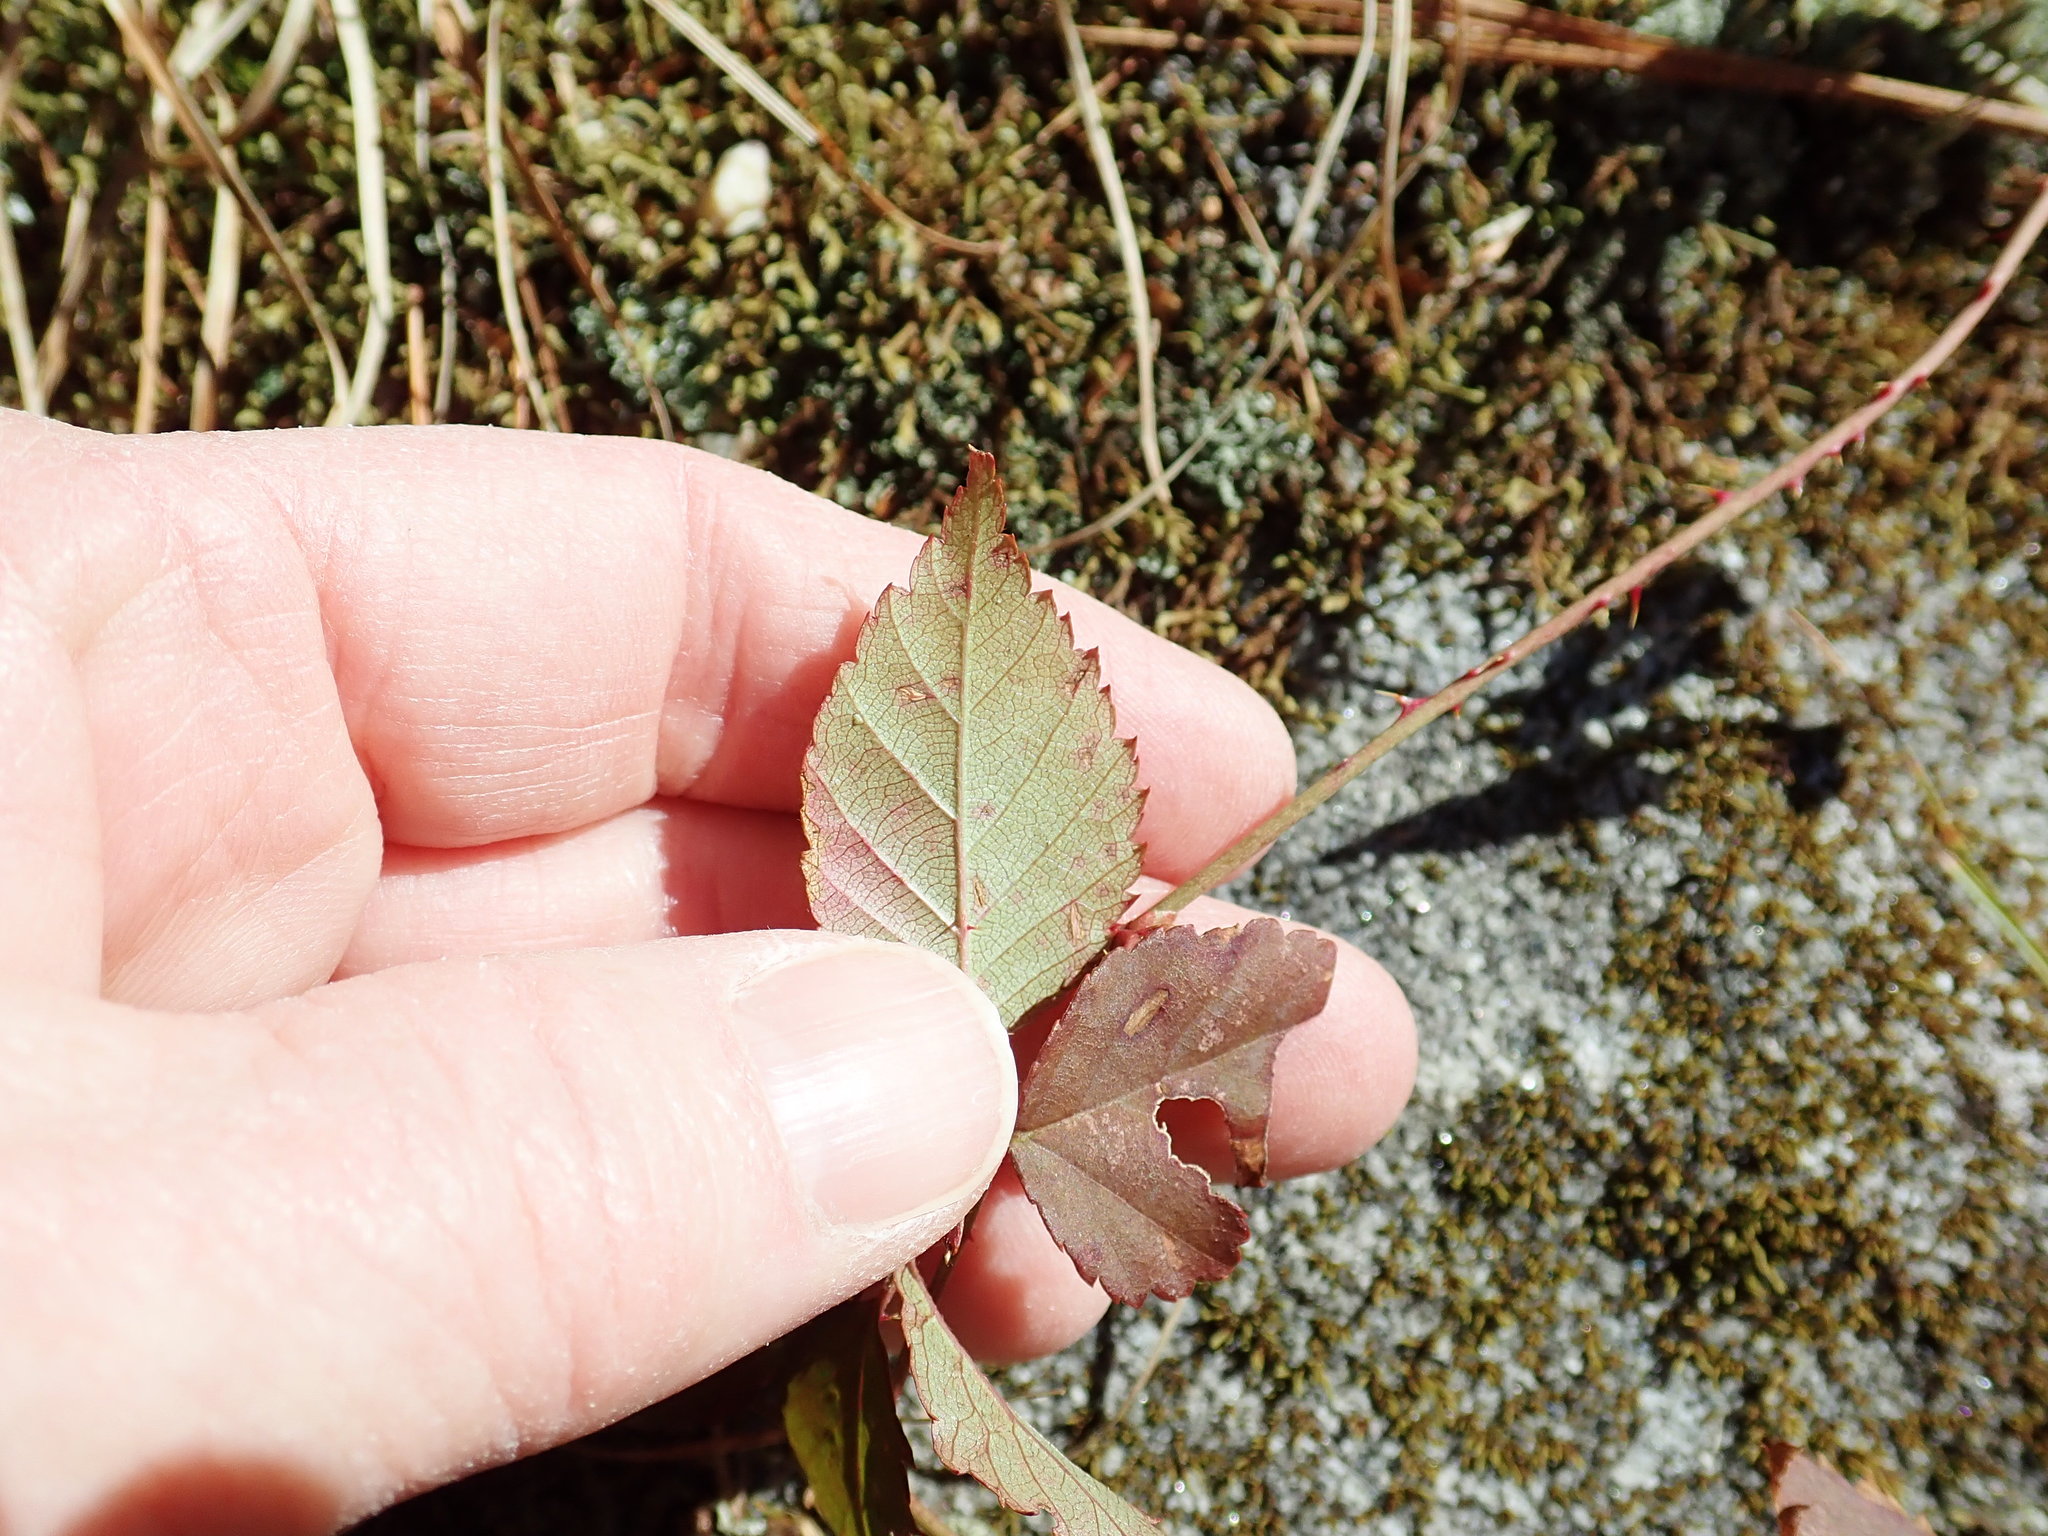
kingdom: Plantae
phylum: Tracheophyta
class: Magnoliopsida
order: Rosales
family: Rosaceae
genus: Rubus
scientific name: Rubus flagellaris
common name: American dewberry
